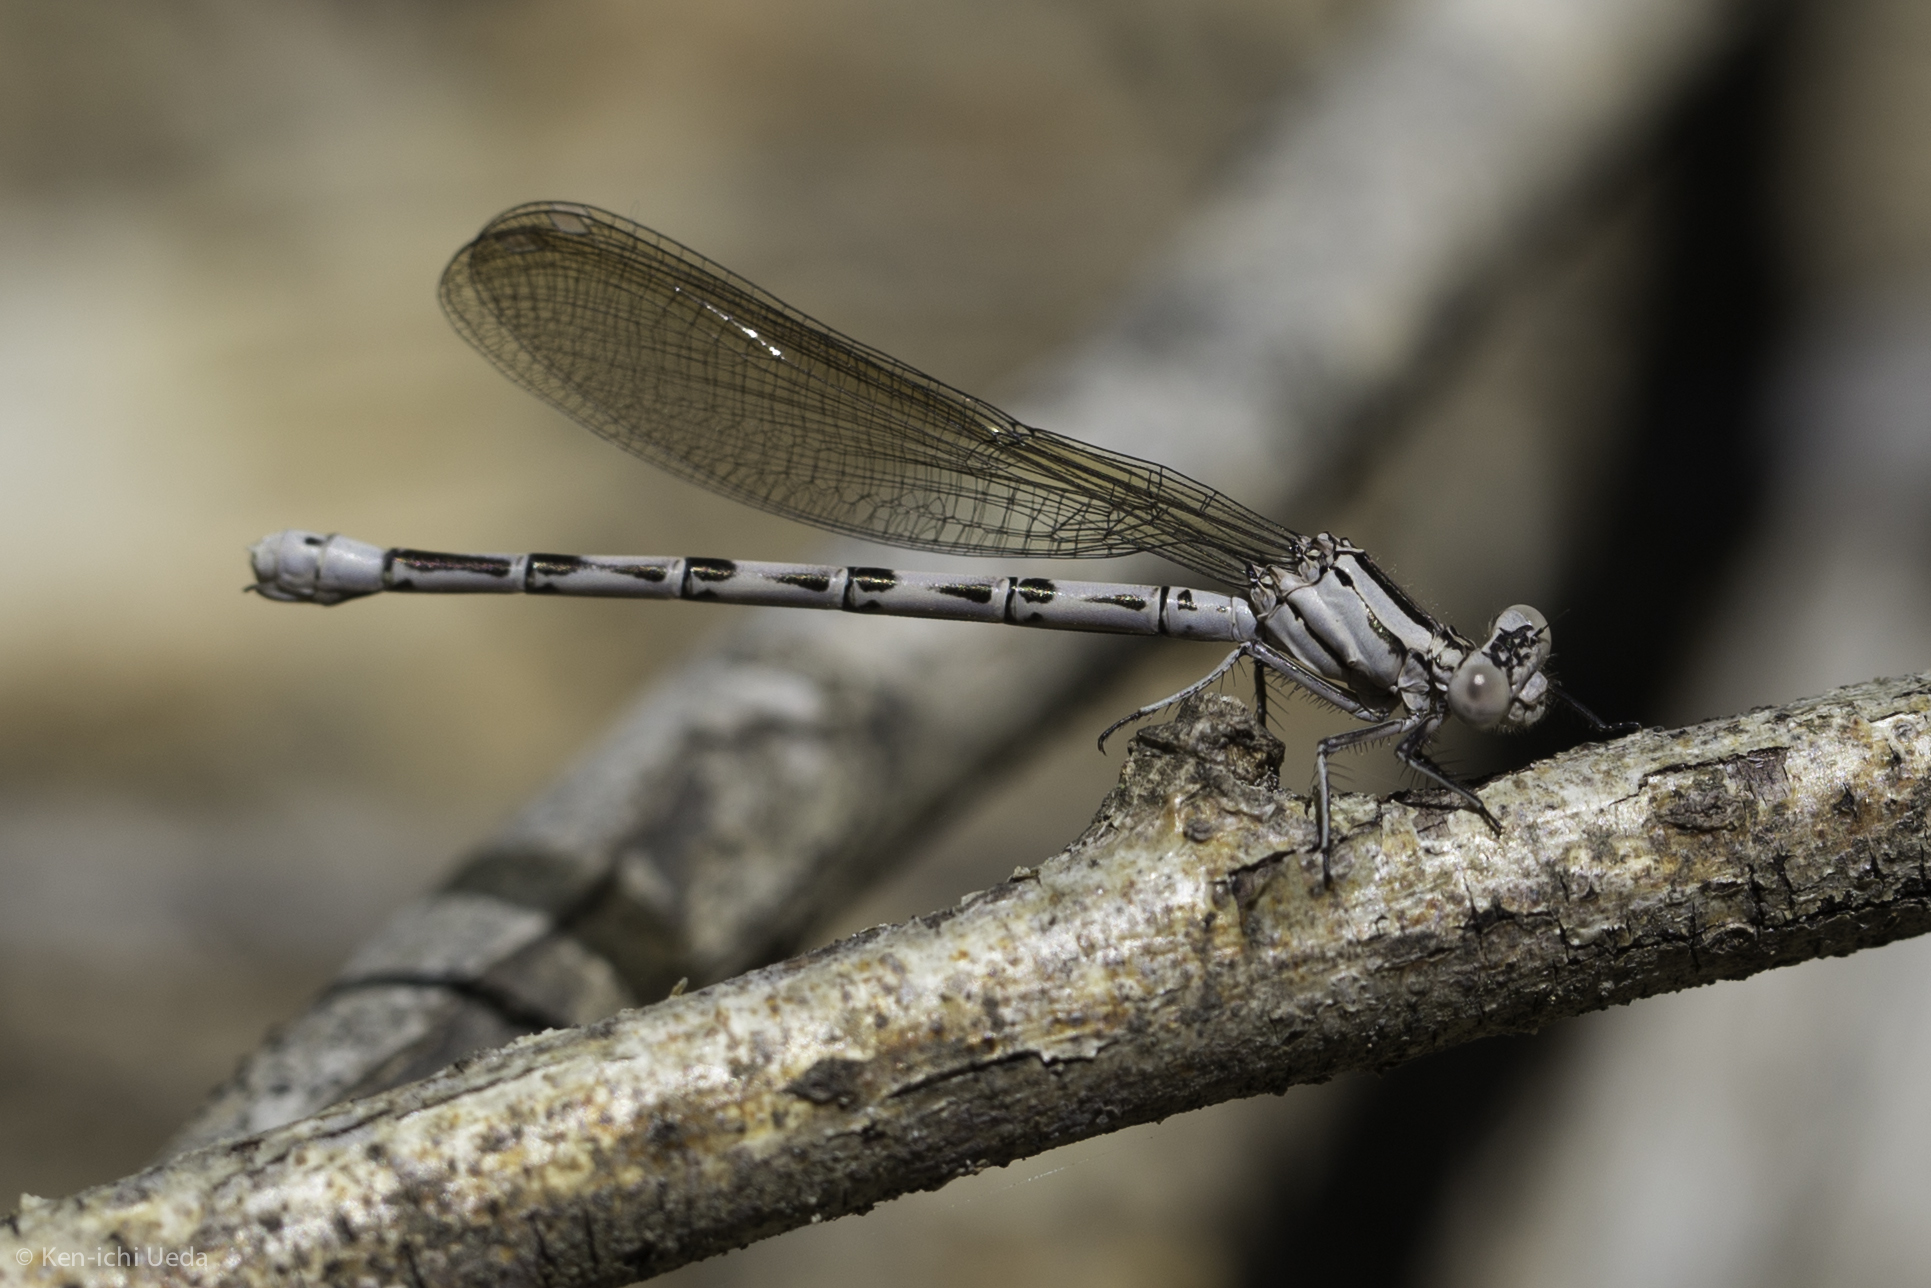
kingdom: Animalia
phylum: Arthropoda
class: Insecta
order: Odonata
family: Coenagrionidae
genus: Argia
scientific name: Argia vivida
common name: Vivid dancer
